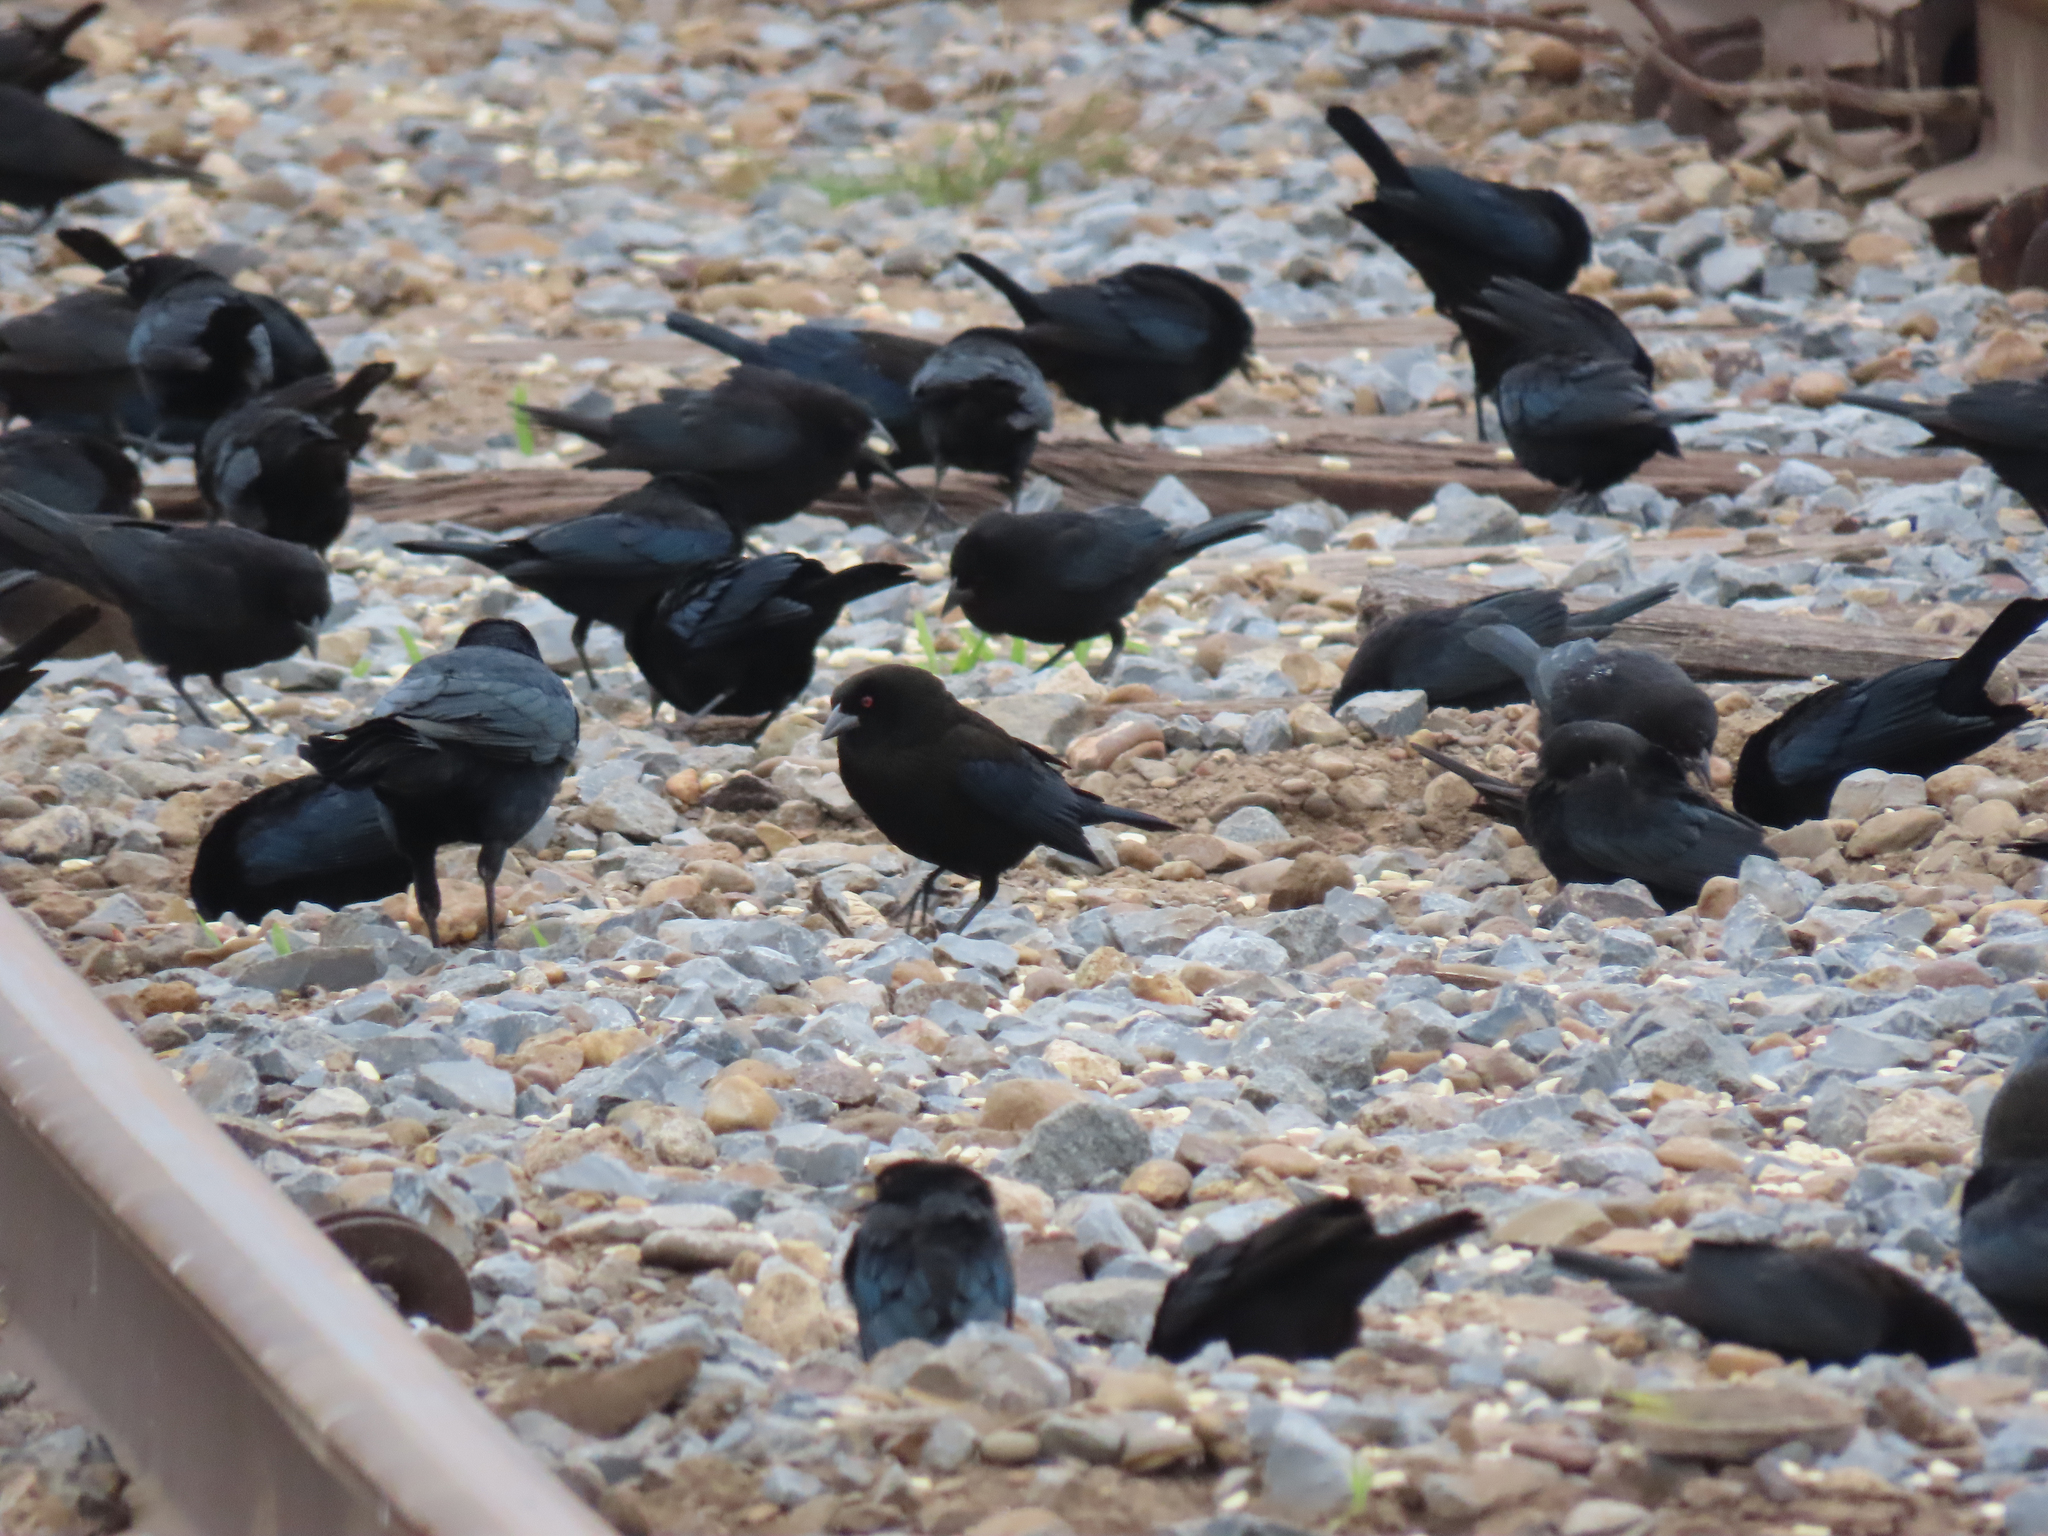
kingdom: Animalia
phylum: Chordata
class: Aves
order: Passeriformes
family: Icteridae
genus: Molothrus
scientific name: Molothrus aeneus
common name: Bronzed cowbird
